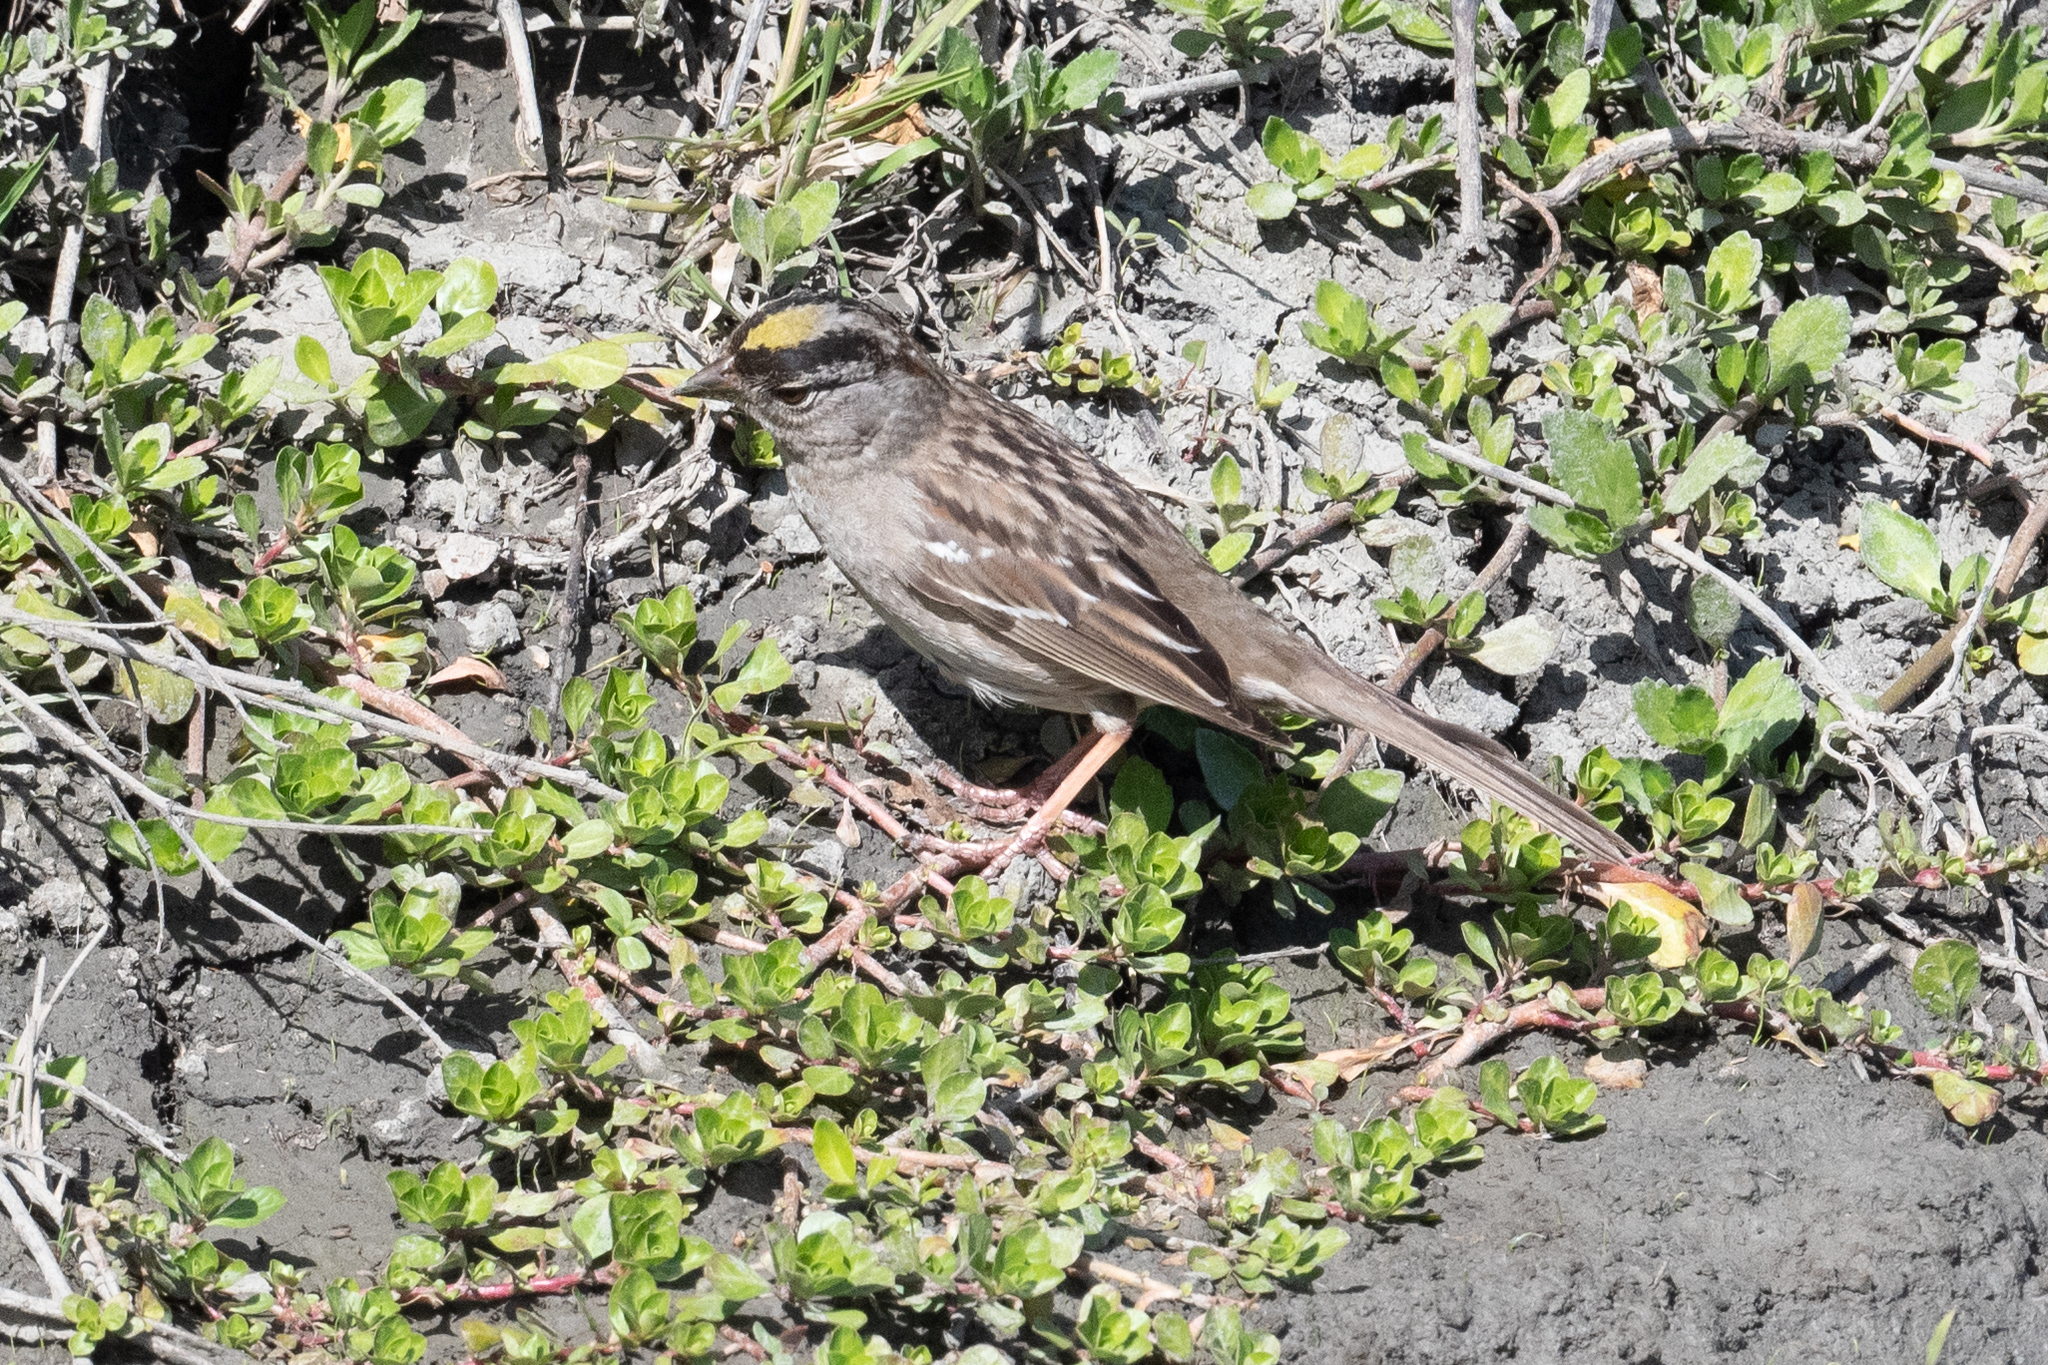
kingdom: Animalia
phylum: Chordata
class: Aves
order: Passeriformes
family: Passerellidae
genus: Zonotrichia
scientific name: Zonotrichia atricapilla
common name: Golden-crowned sparrow
